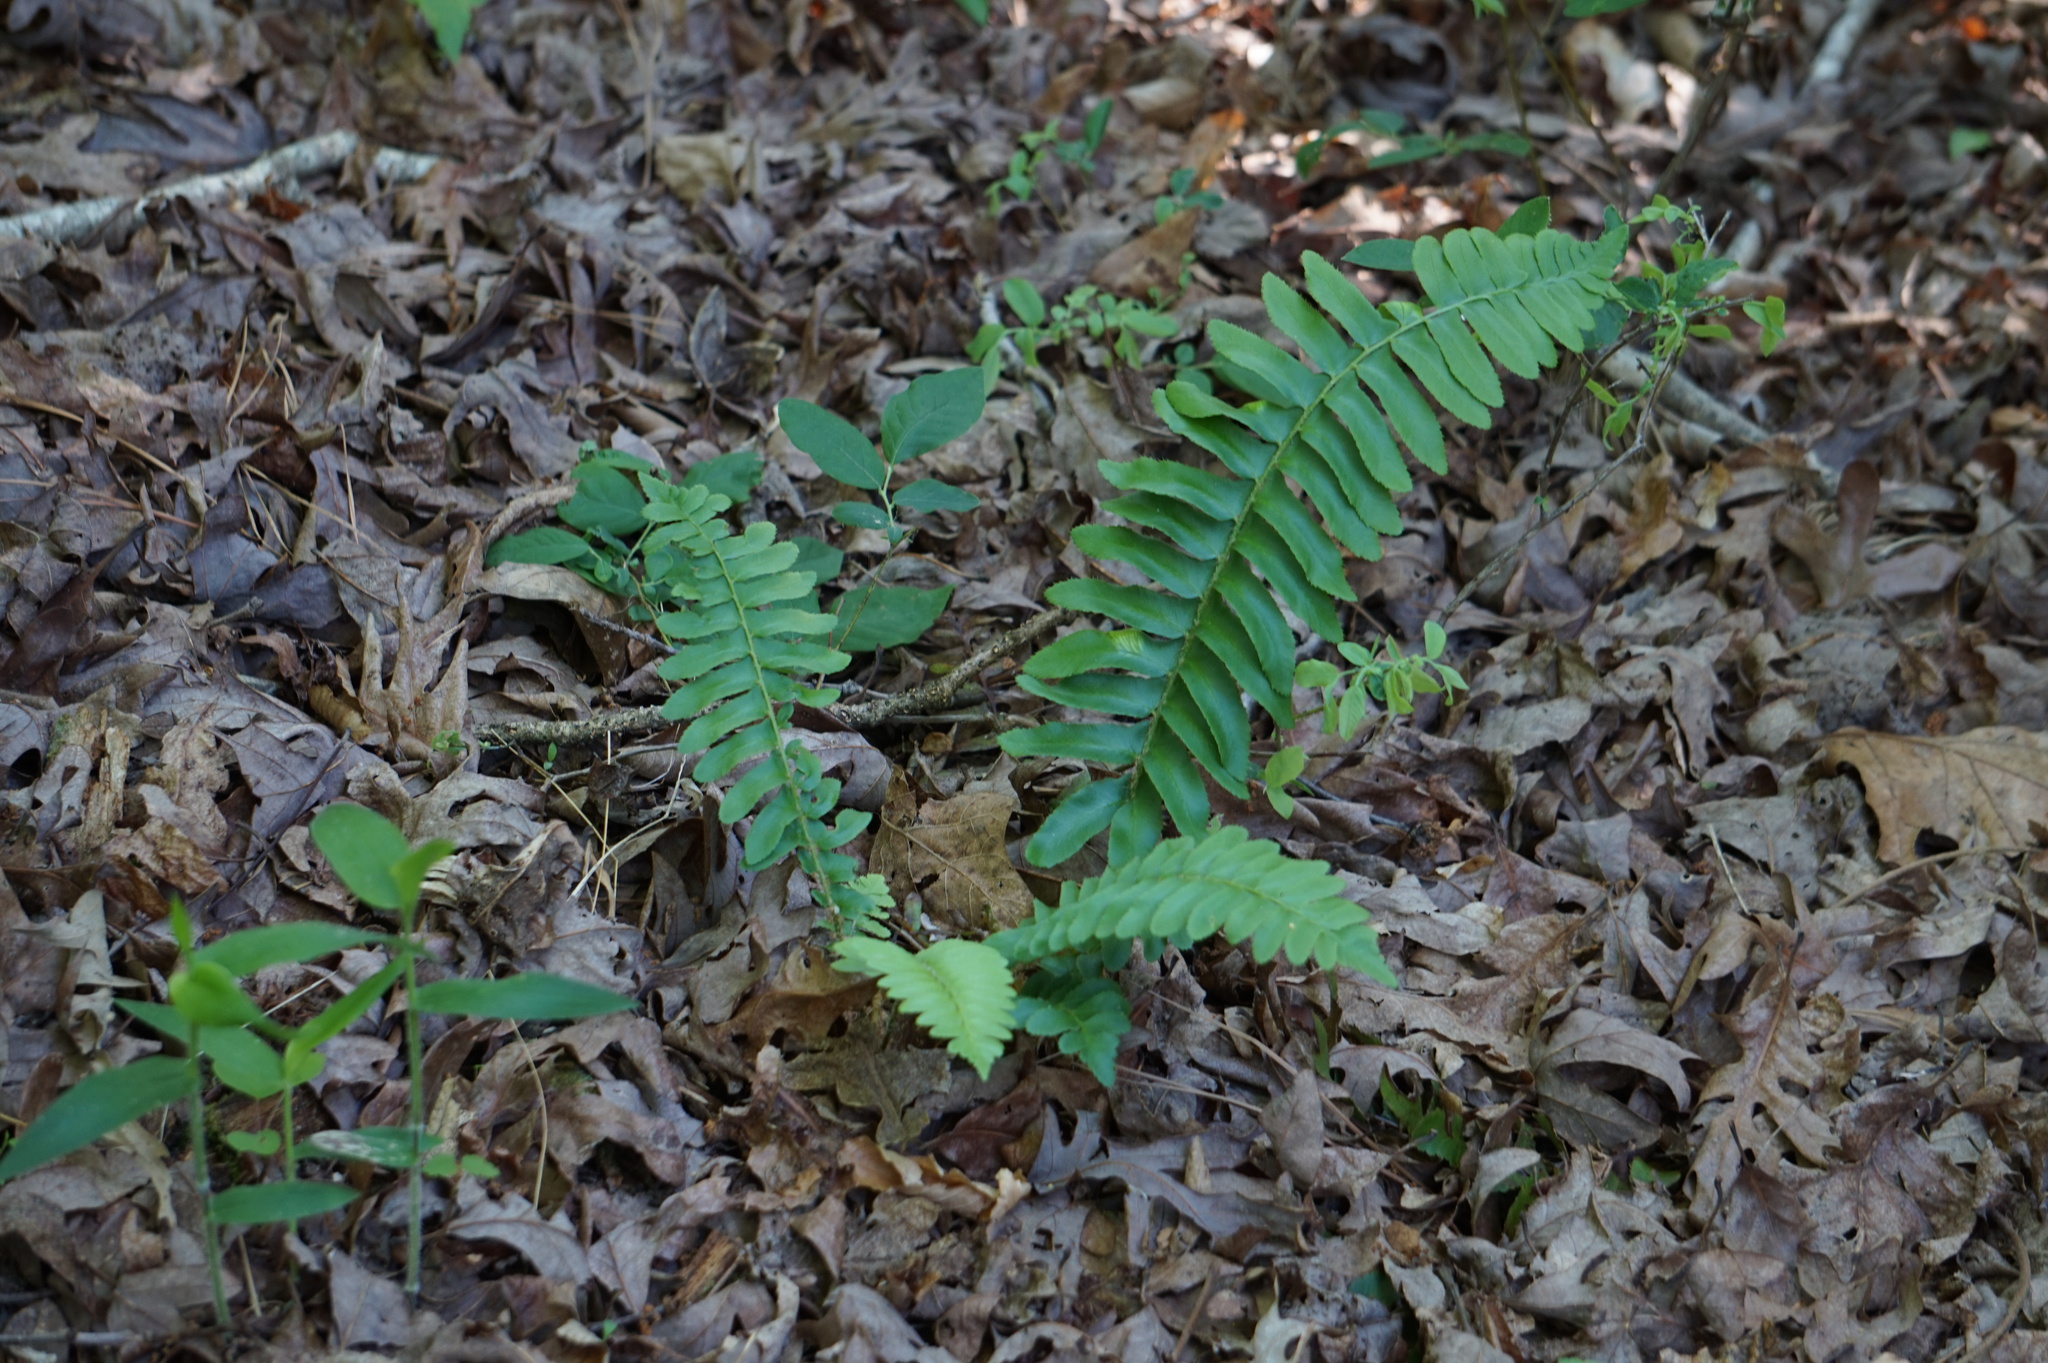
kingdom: Plantae
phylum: Tracheophyta
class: Polypodiopsida
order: Polypodiales
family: Dryopteridaceae
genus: Polystichum
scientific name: Polystichum acrostichoides
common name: Christmas fern
